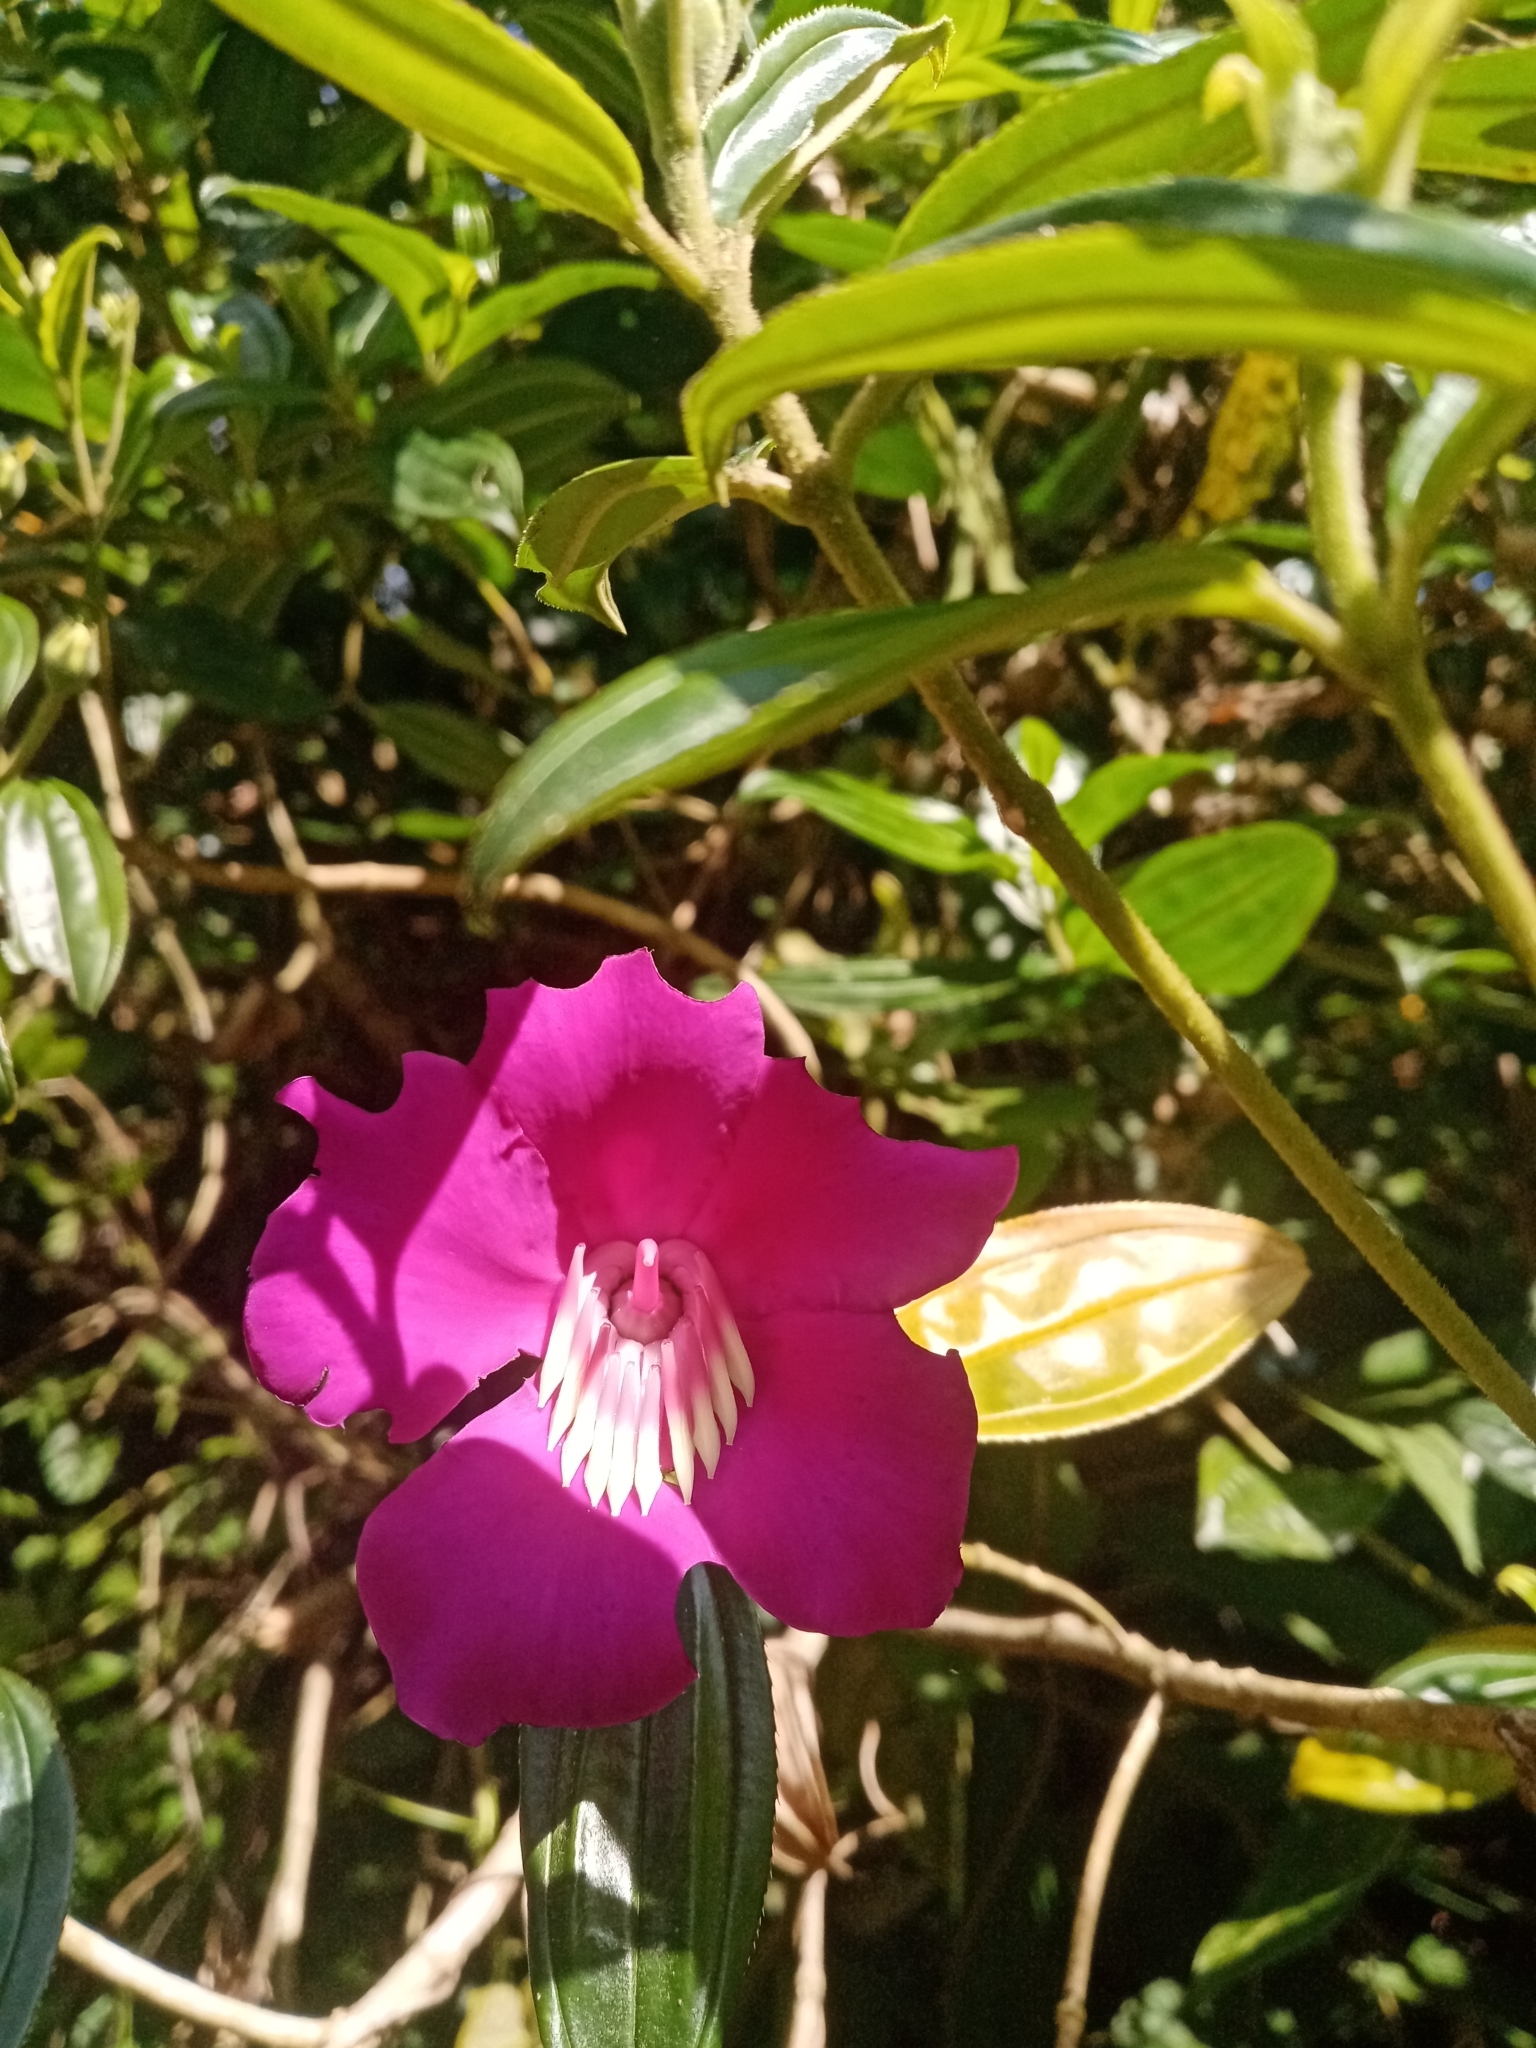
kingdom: Plantae
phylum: Tracheophyta
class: Magnoliopsida
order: Myrtales
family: Melastomataceae
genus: Meriania
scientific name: Meriania speciosa
